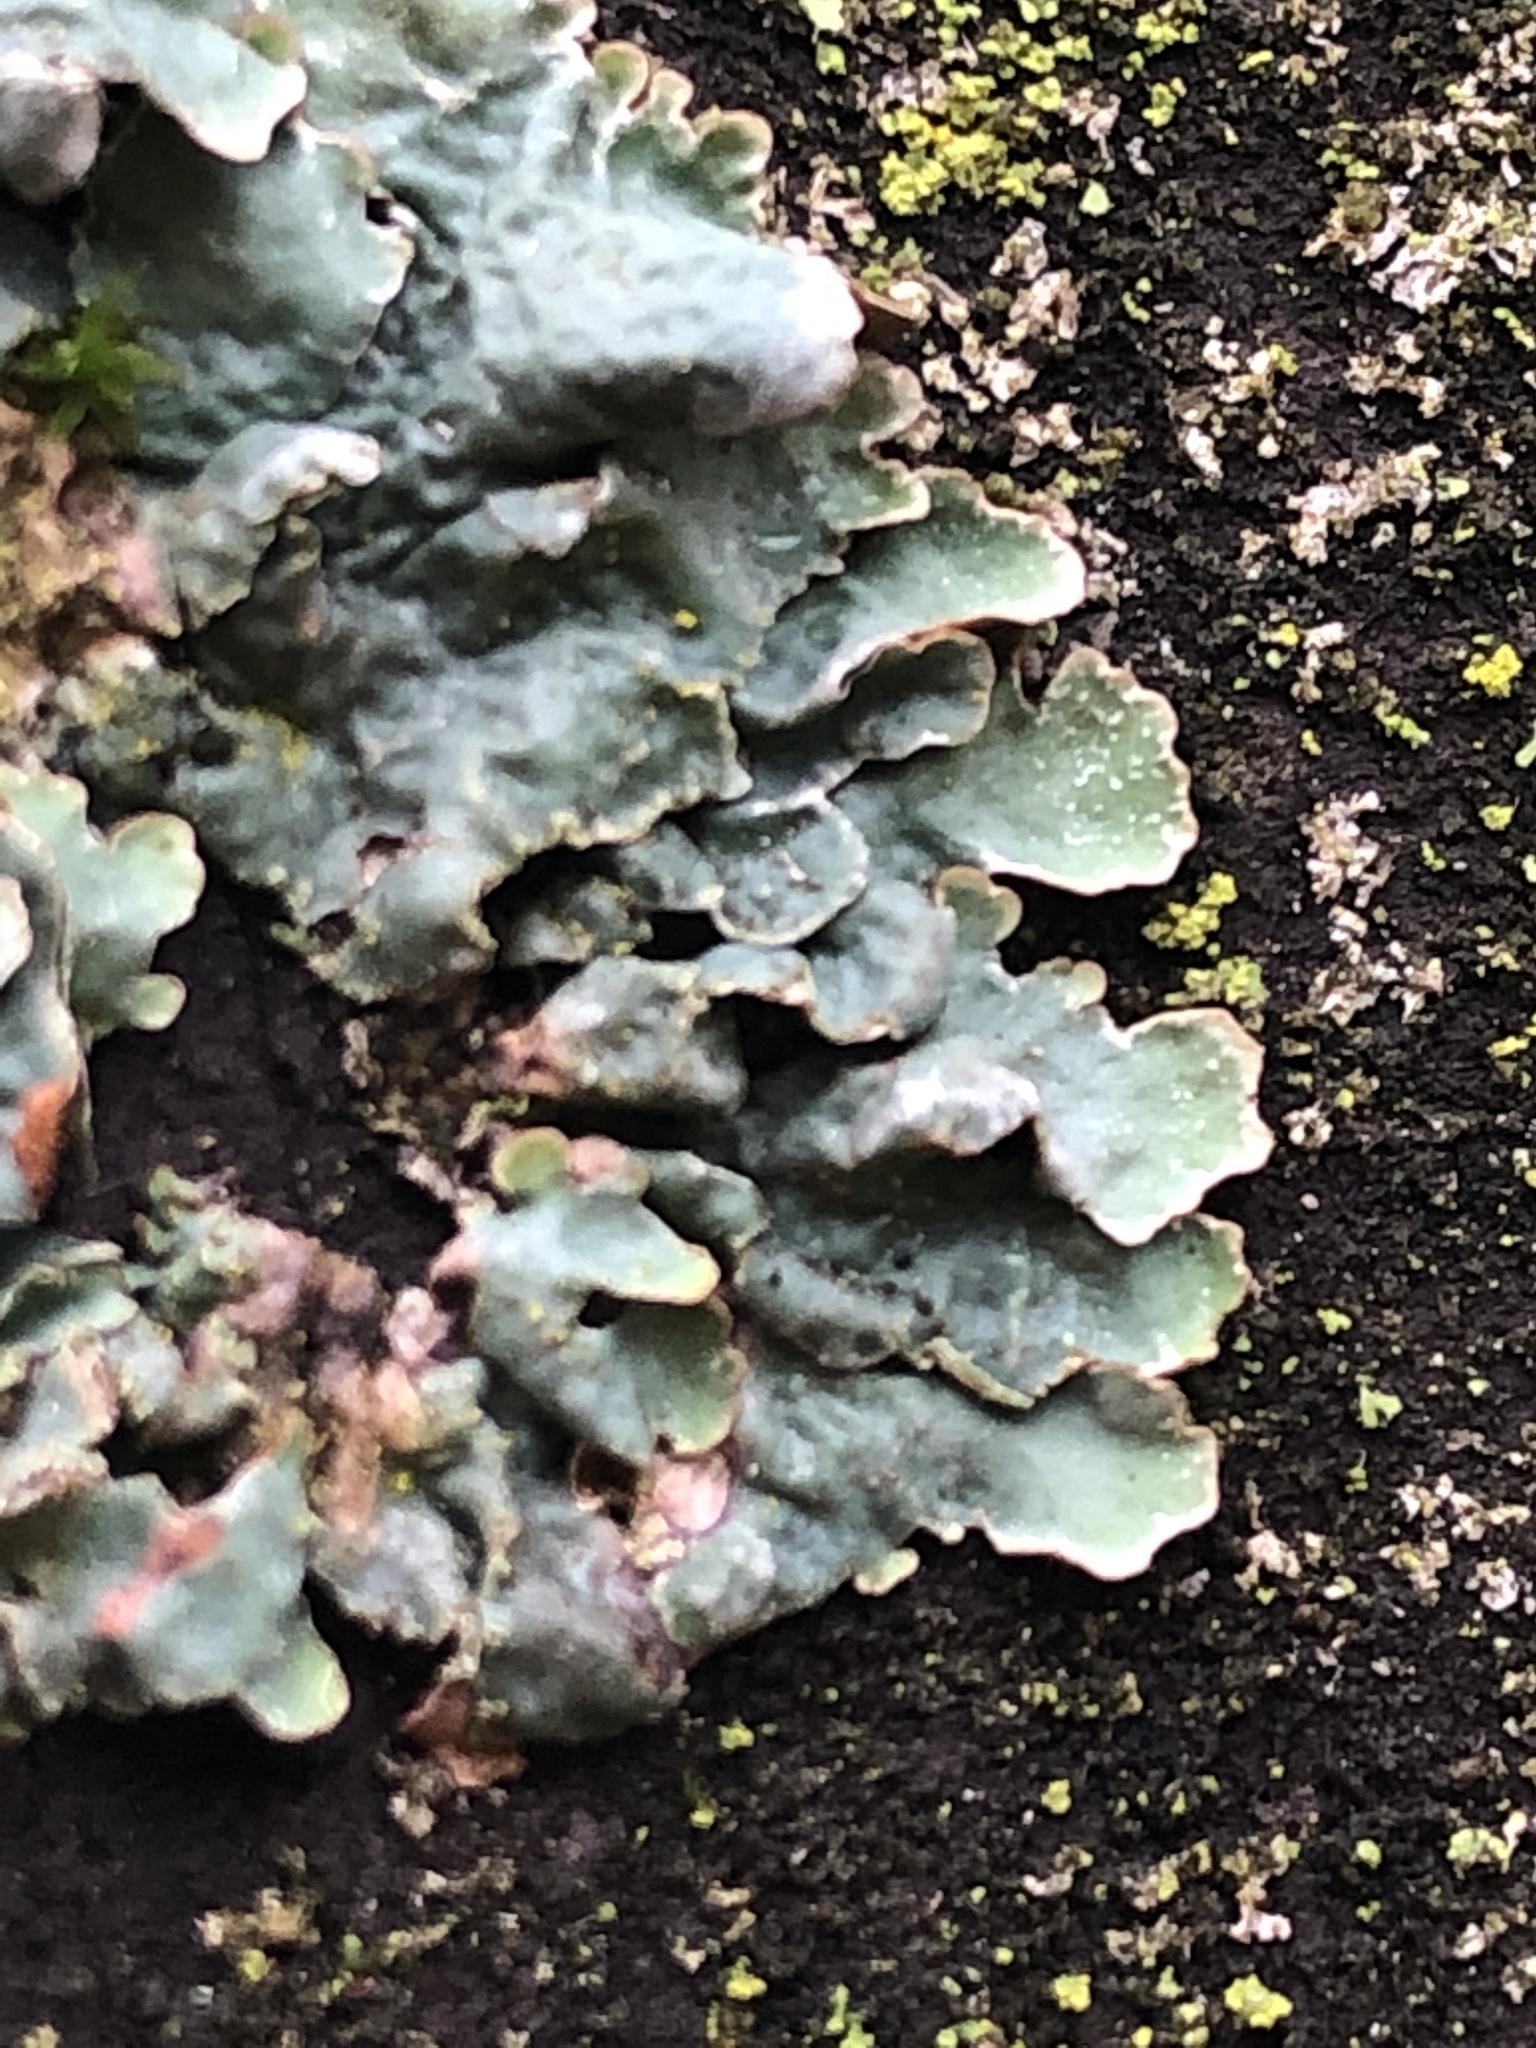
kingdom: Fungi
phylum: Ascomycota
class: Lecanoromycetes
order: Lecanorales
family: Parmeliaceae
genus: Parmelia
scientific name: Parmelia sulcata
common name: Netted shield lichen
